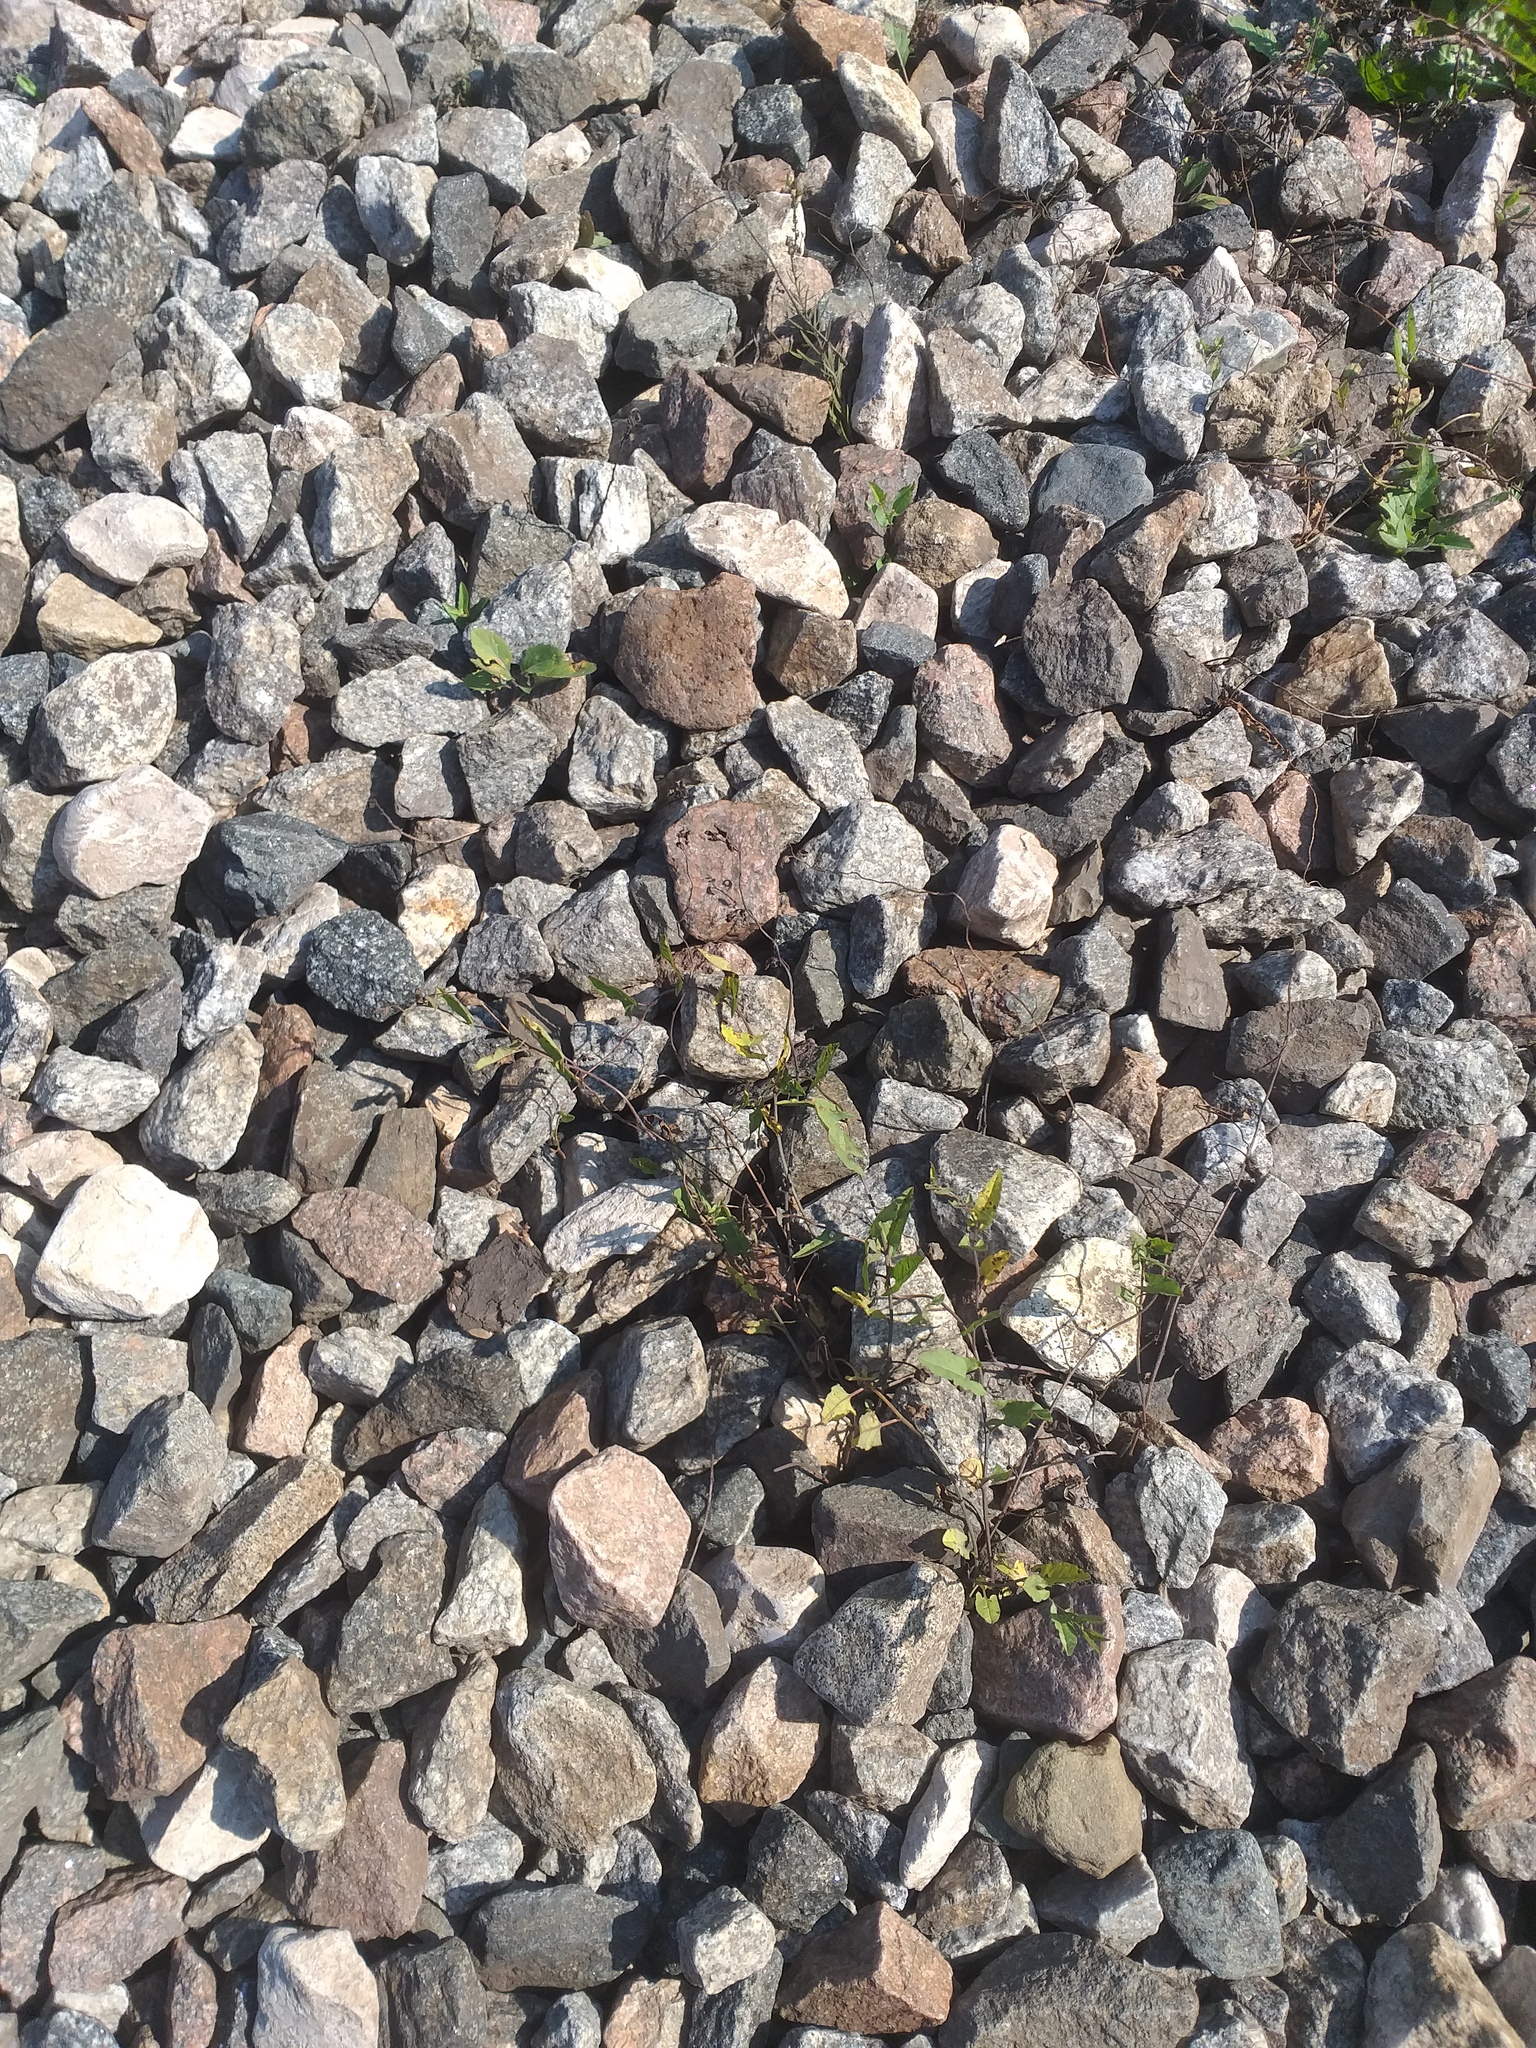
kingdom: Plantae
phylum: Tracheophyta
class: Magnoliopsida
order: Solanales
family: Convolvulaceae
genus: Convolvulus
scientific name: Convolvulus arvensis
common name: Field bindweed
